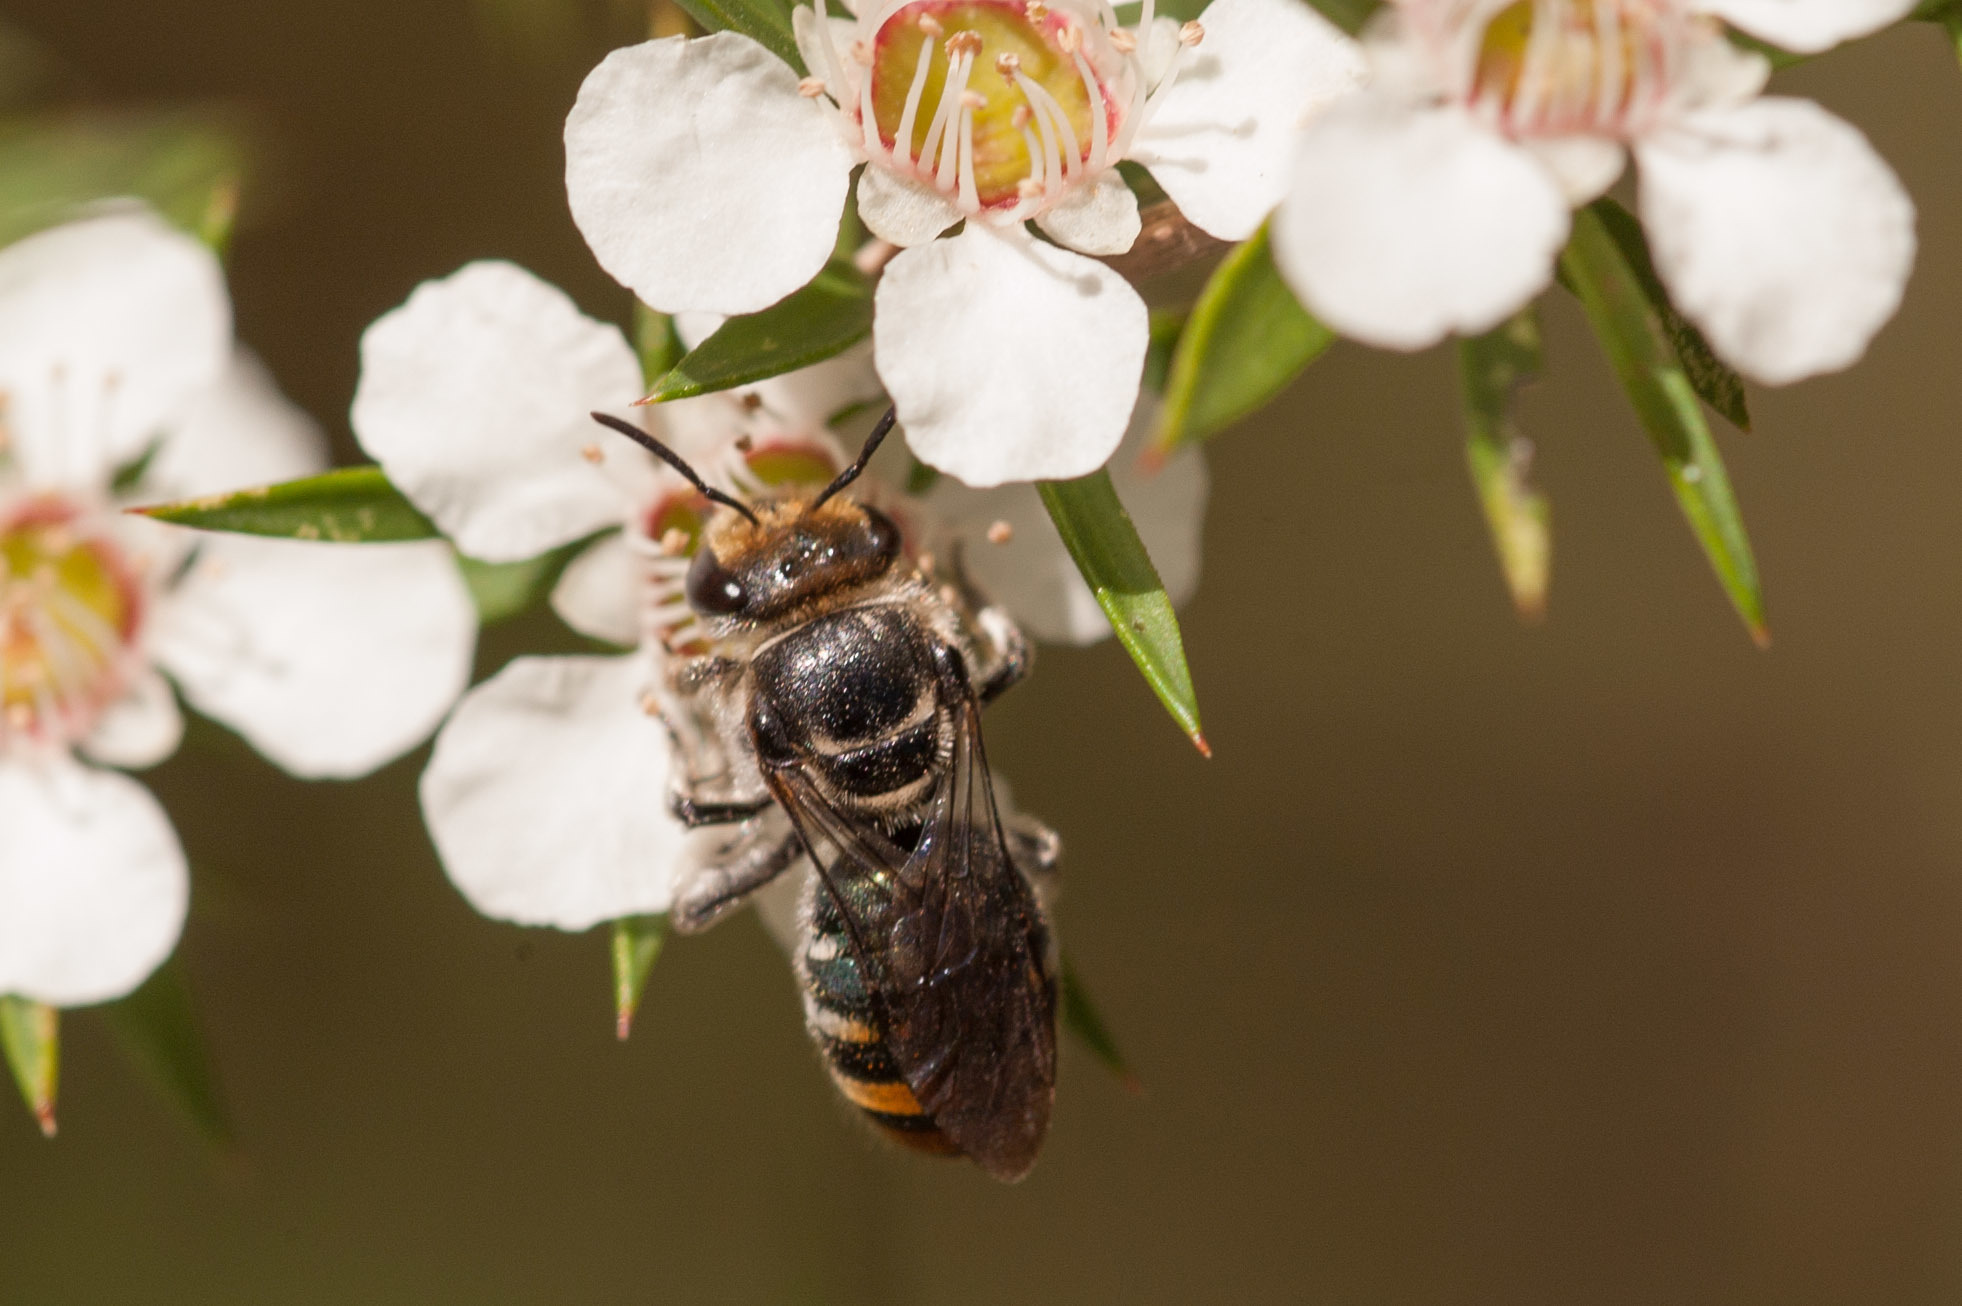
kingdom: Animalia
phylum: Arthropoda
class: Insecta
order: Hymenoptera
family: Halictidae
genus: Lipotriches
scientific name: Lipotriches australica
